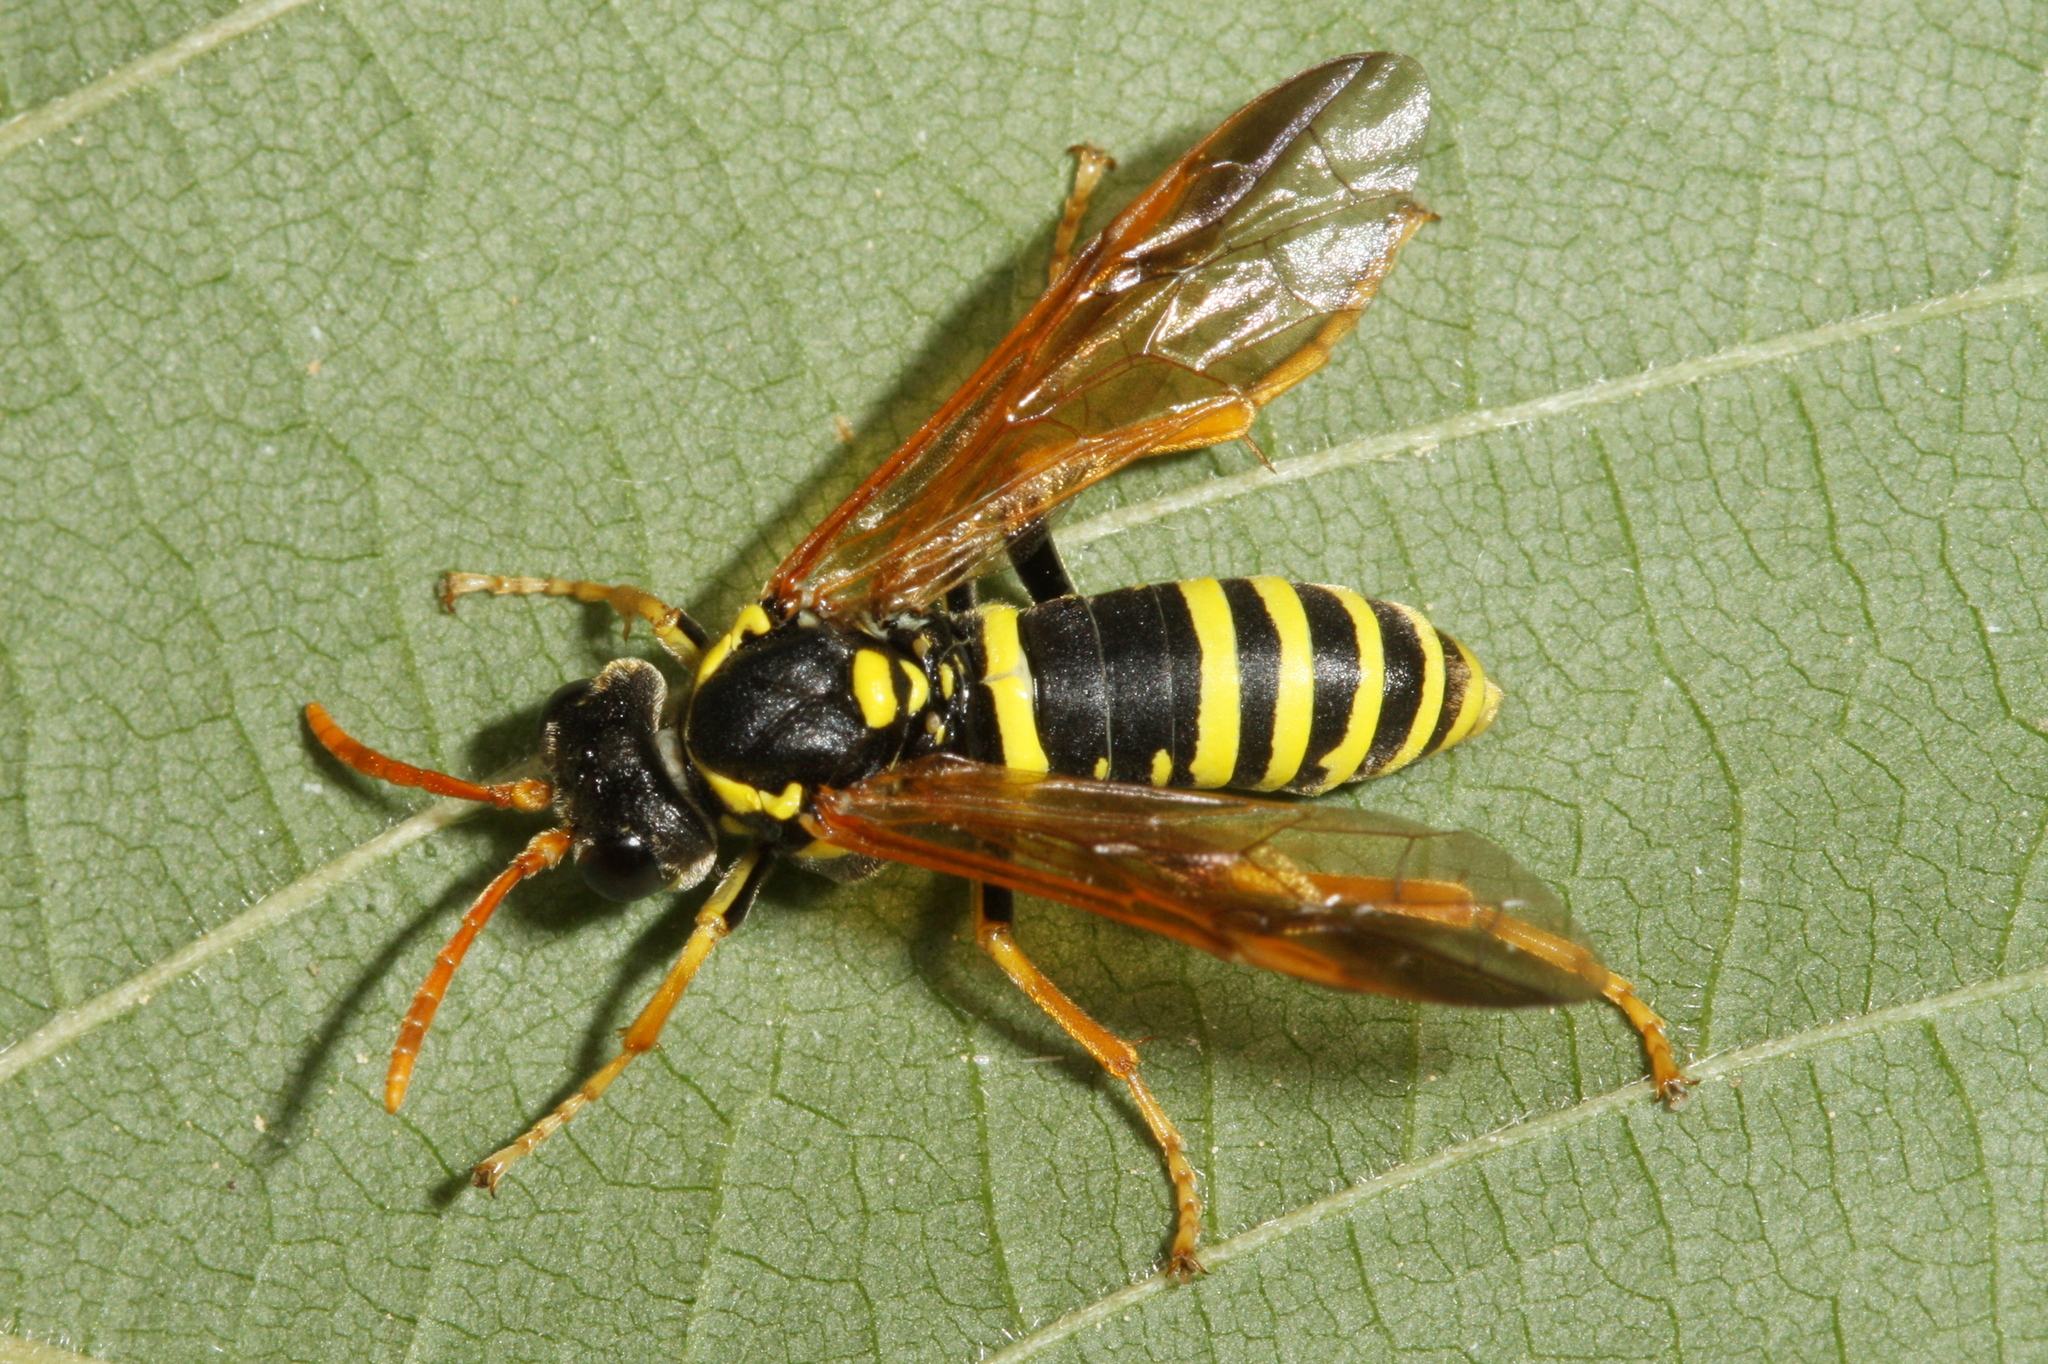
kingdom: Animalia
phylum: Arthropoda
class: Insecta
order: Hymenoptera
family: Tenthredinidae
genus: Tenthredo
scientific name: Tenthredo scrophulariae
